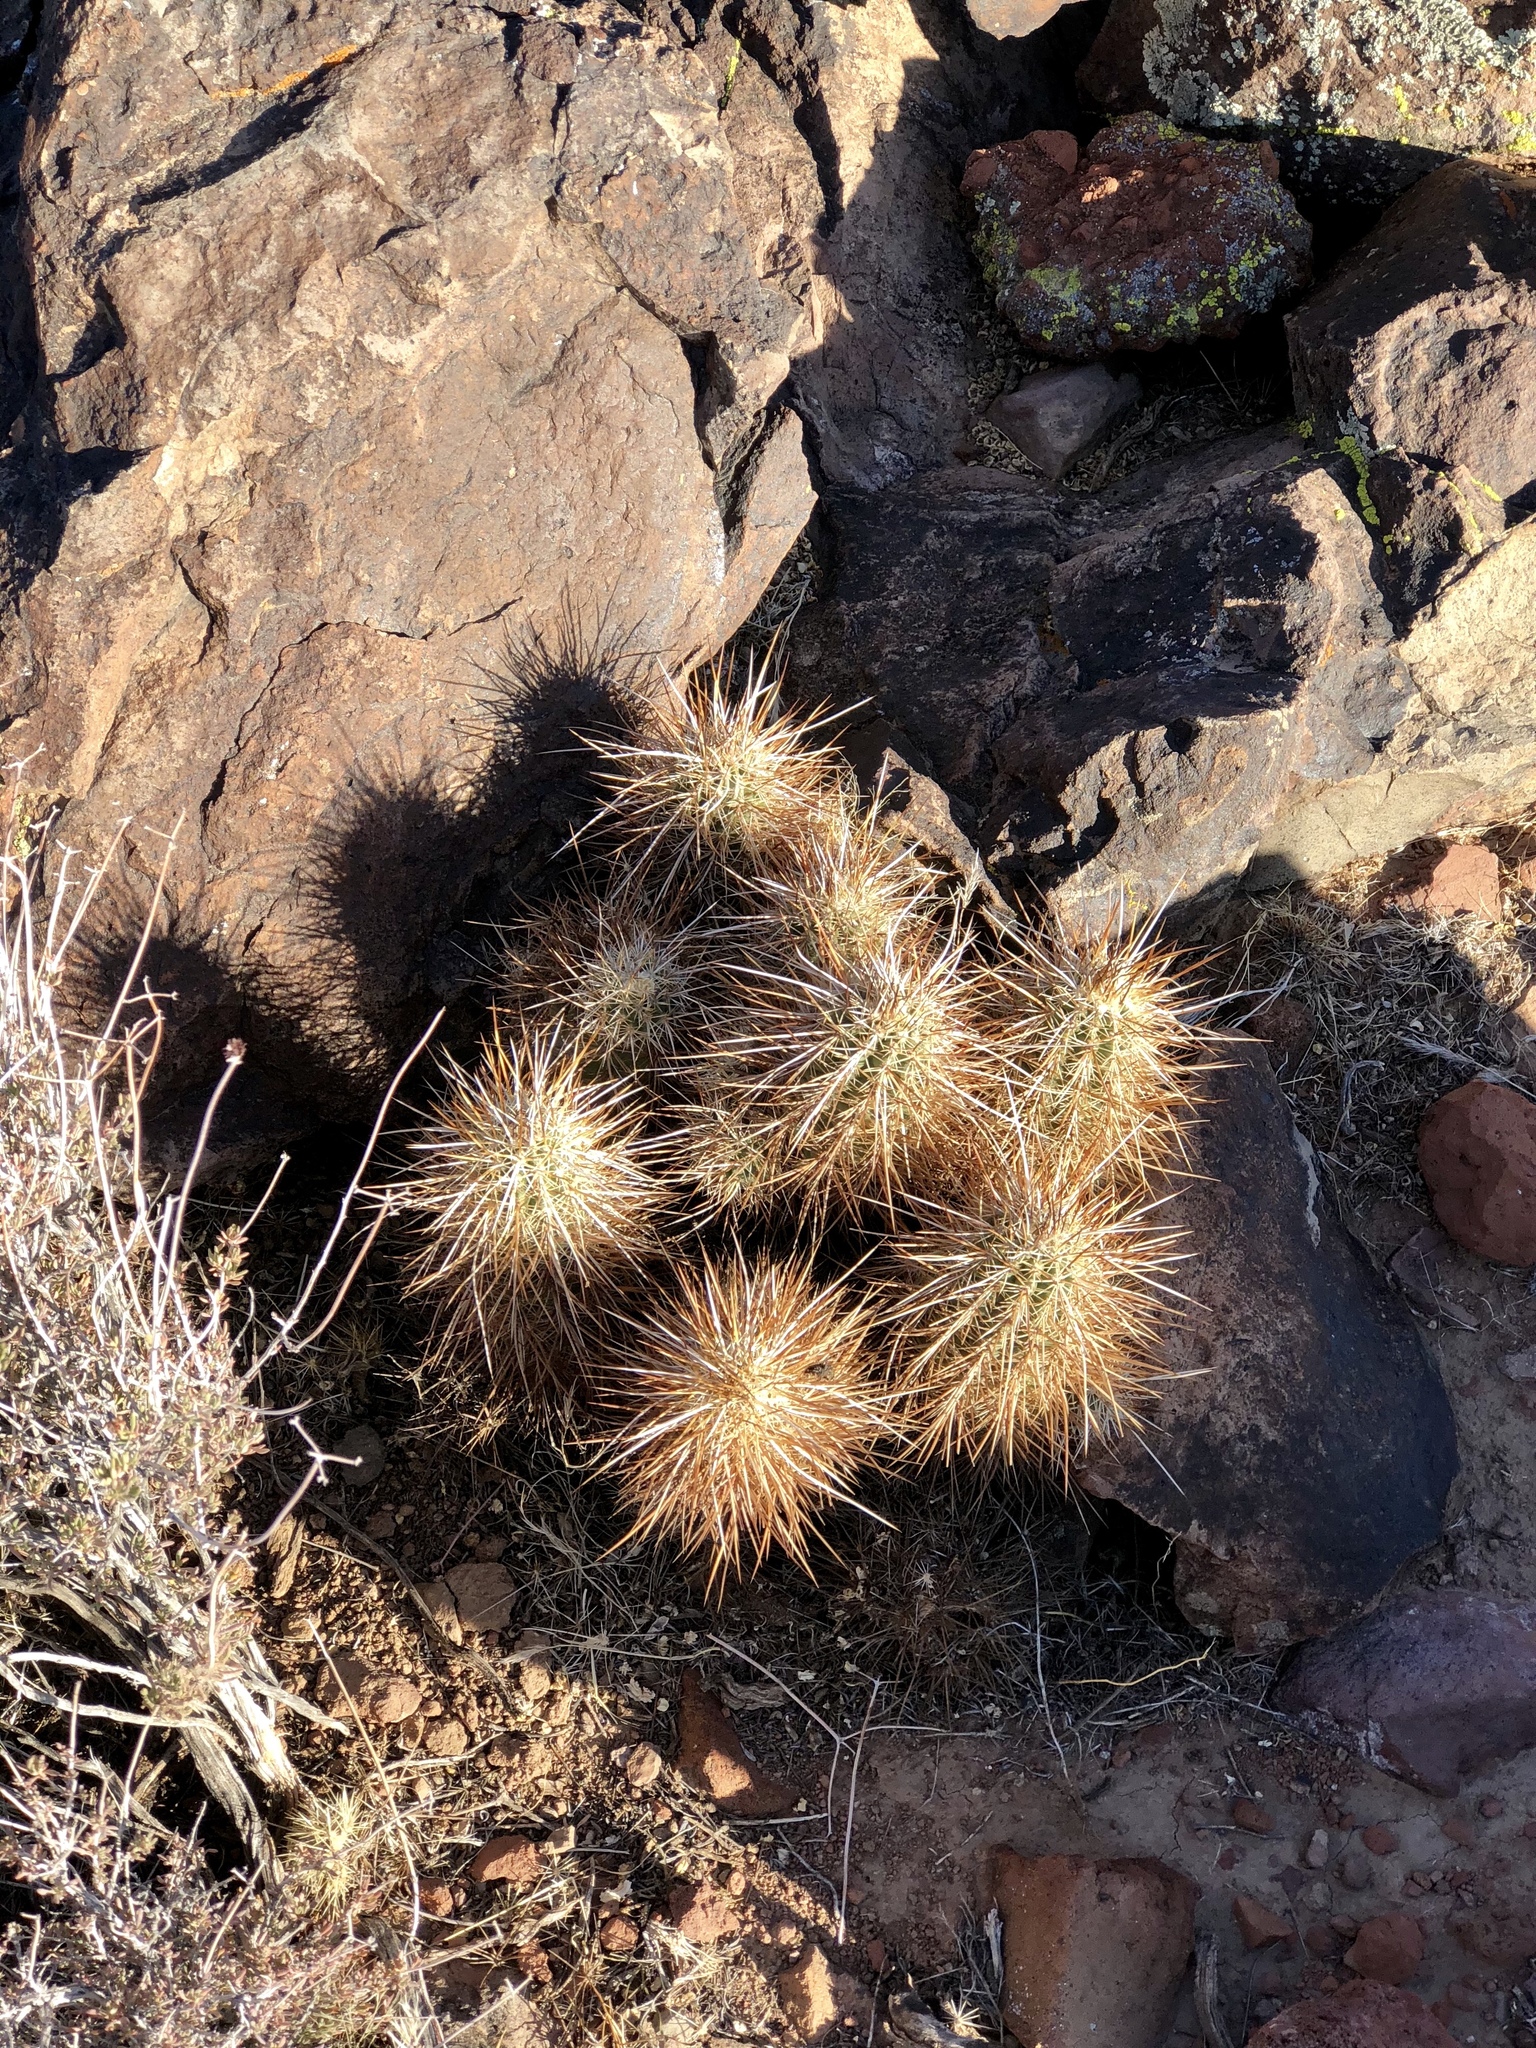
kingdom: Plantae
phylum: Tracheophyta
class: Magnoliopsida
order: Caryophyllales
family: Cactaceae
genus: Echinocereus
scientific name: Echinocereus engelmannii
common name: Engelmann's hedgehog cactus
